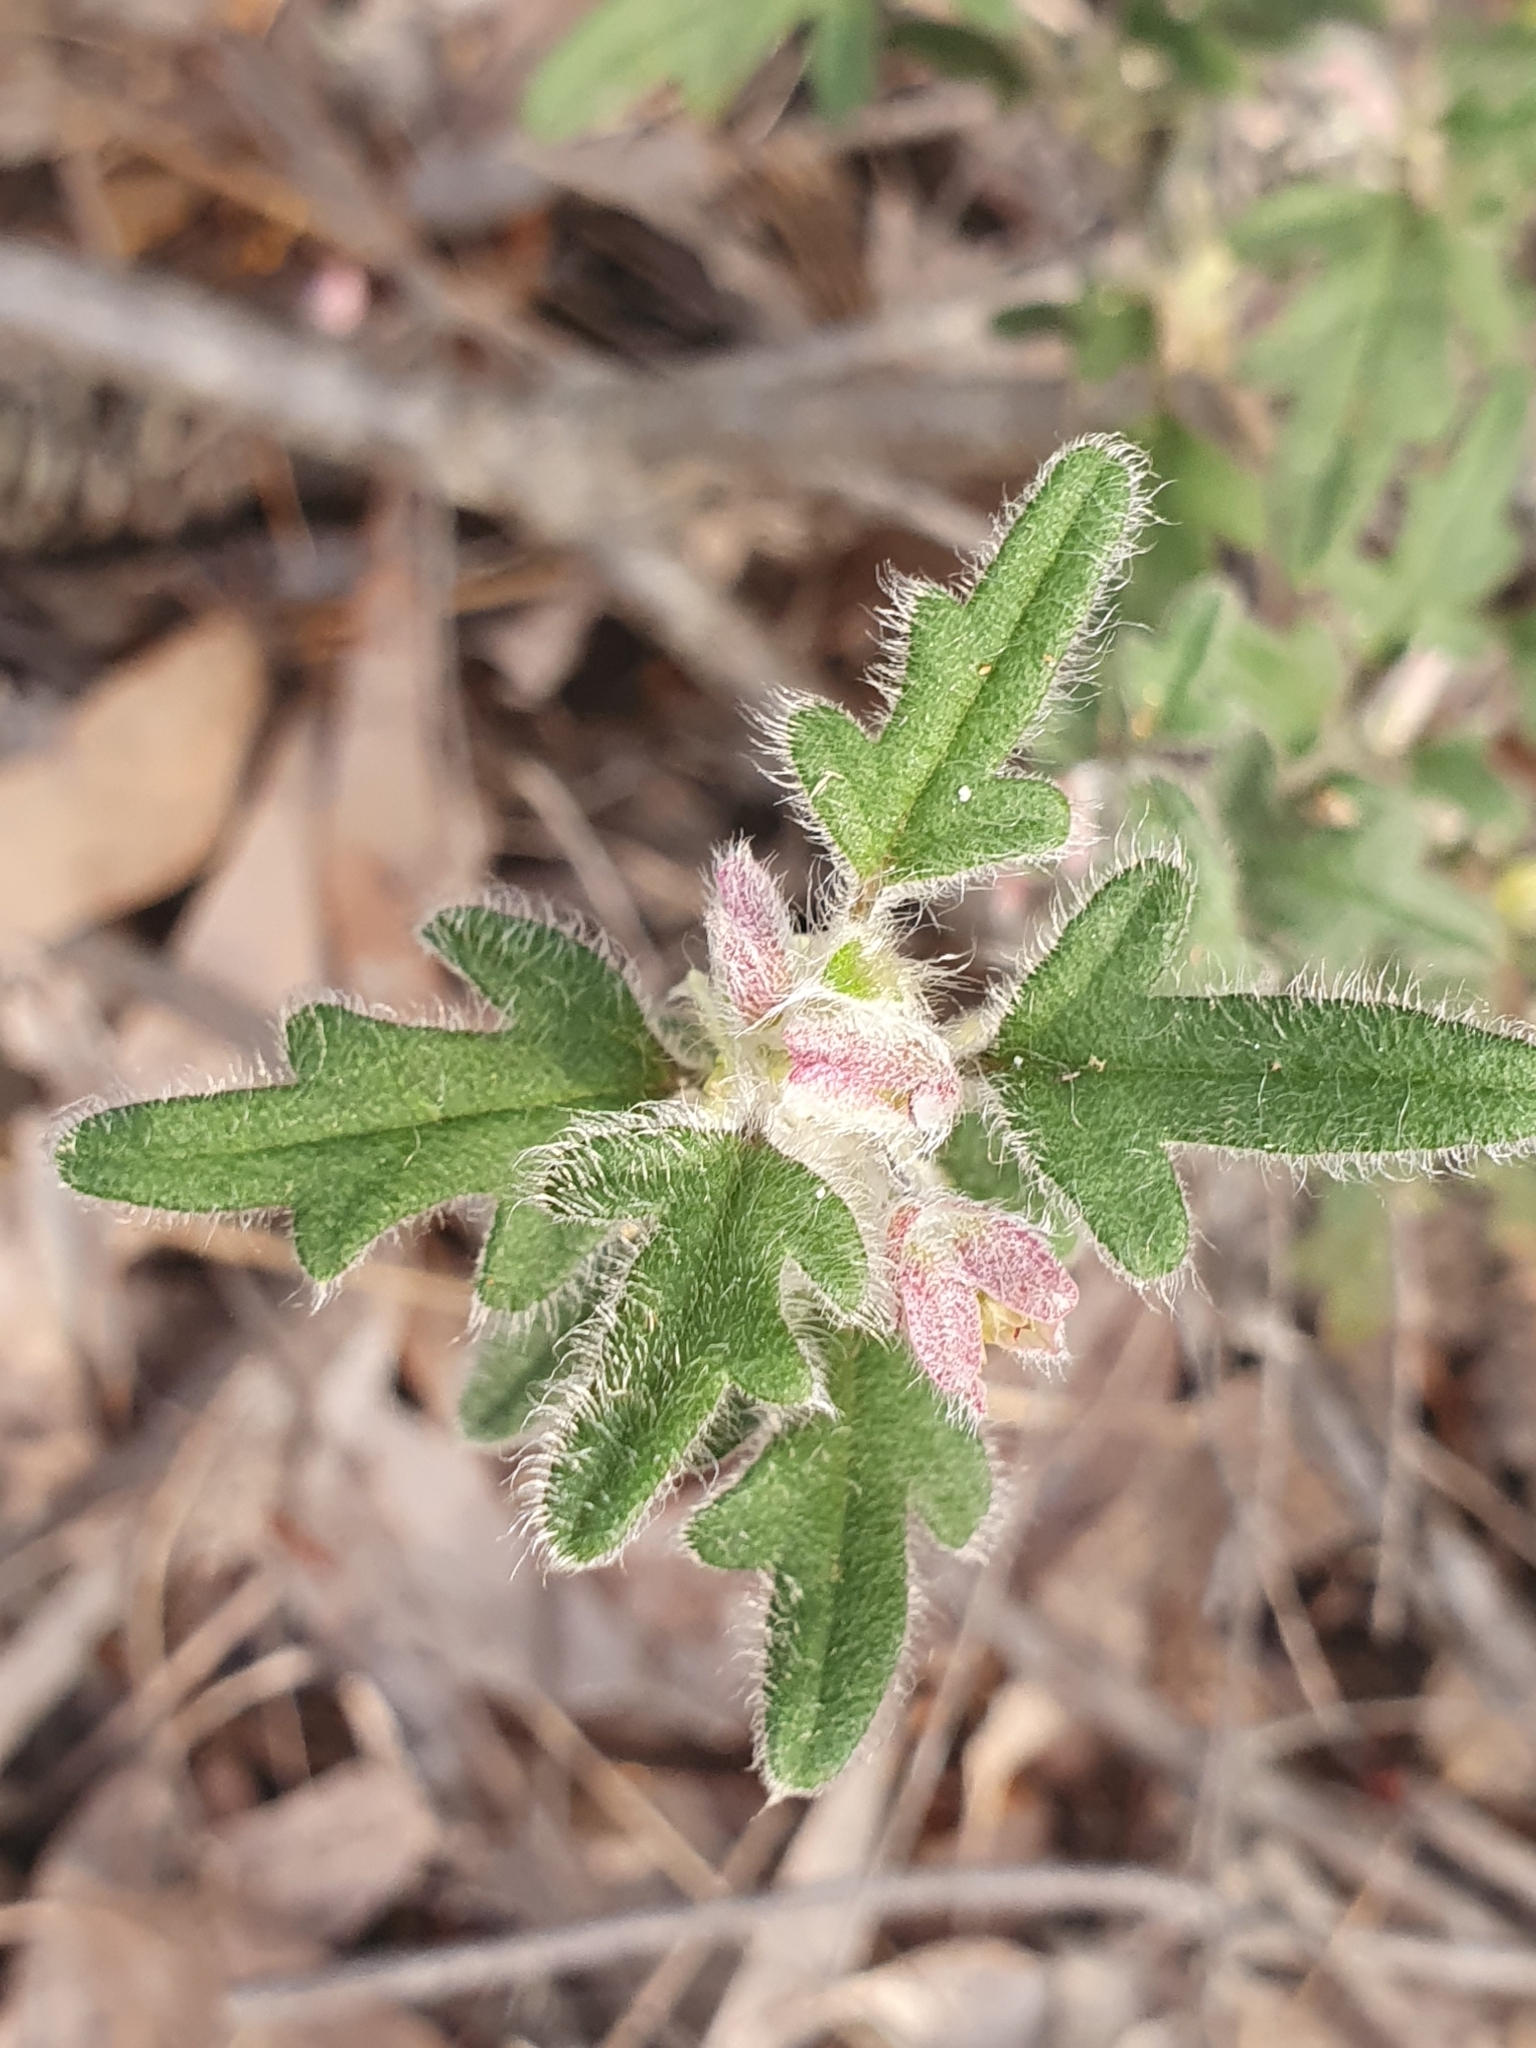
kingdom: Plantae
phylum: Tracheophyta
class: Magnoliopsida
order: Apiales
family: Apiaceae
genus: Xanthosia
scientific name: Xanthosia pilosa
